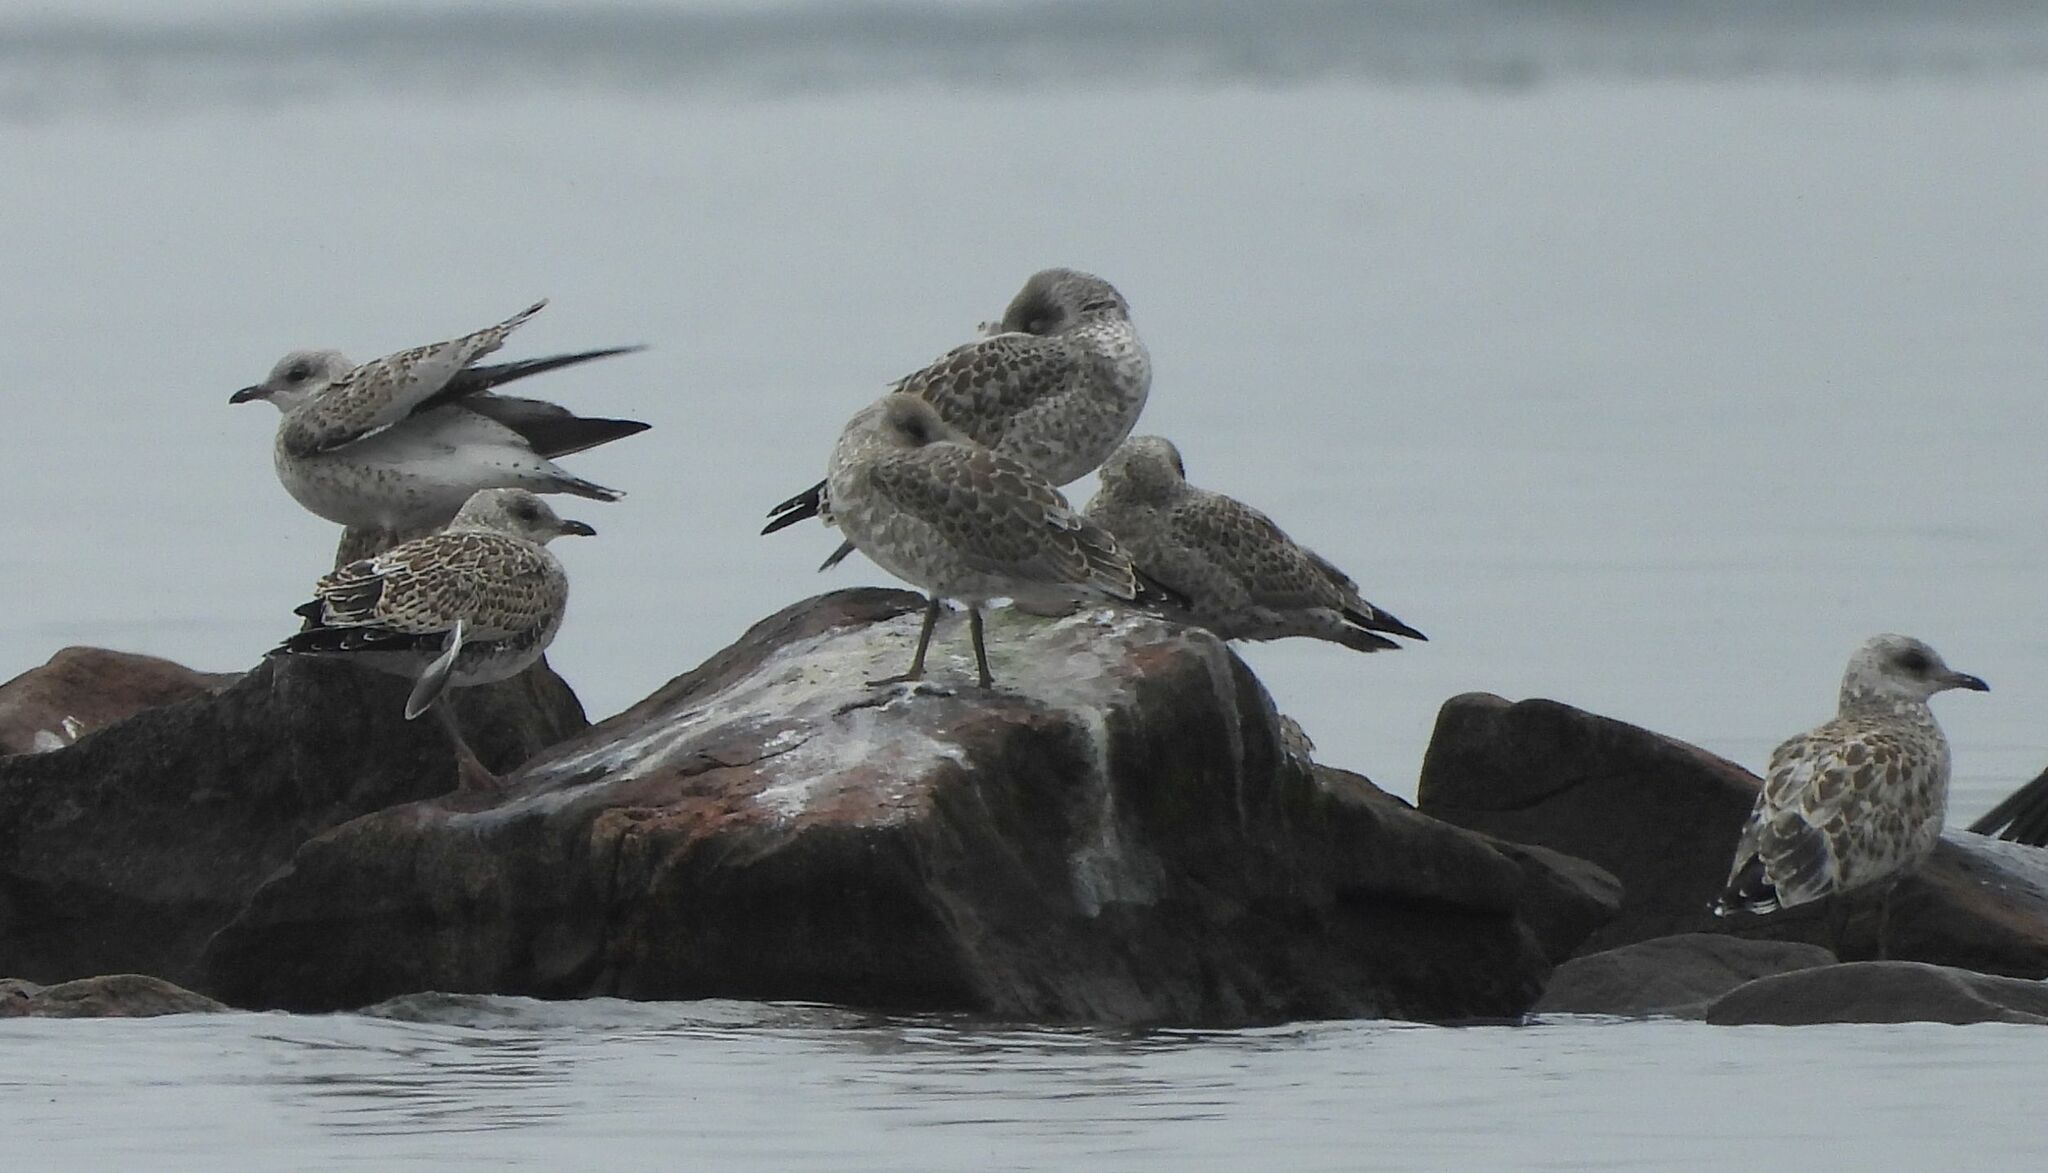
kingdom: Animalia
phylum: Chordata
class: Aves
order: Charadriiformes
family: Laridae
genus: Larus
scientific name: Larus delawarensis
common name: Ring-billed gull
